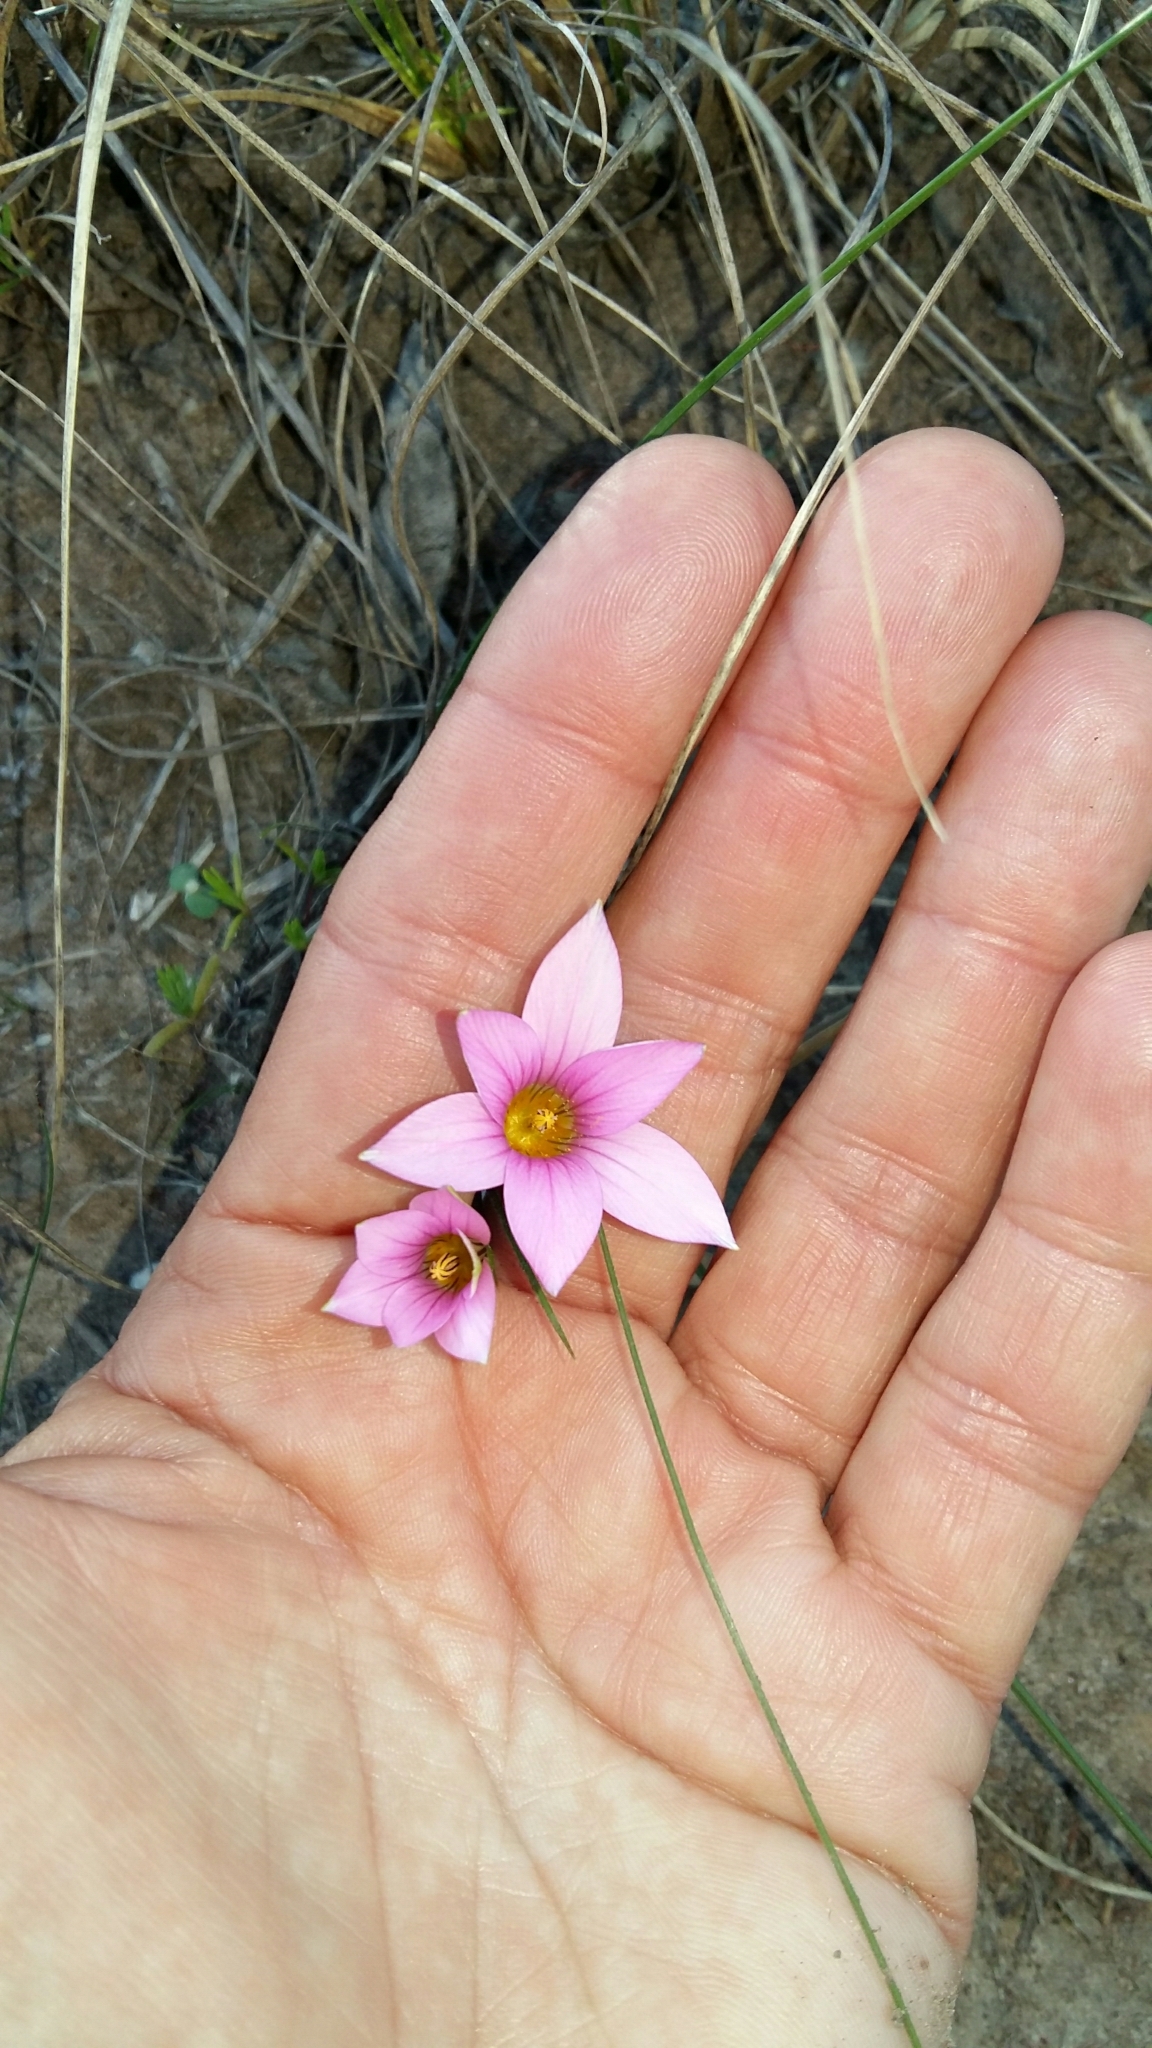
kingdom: Plantae
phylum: Tracheophyta
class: Liliopsida
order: Asparagales
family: Iridaceae
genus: Romulea
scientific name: Romulea rosea
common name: Oniongrass
